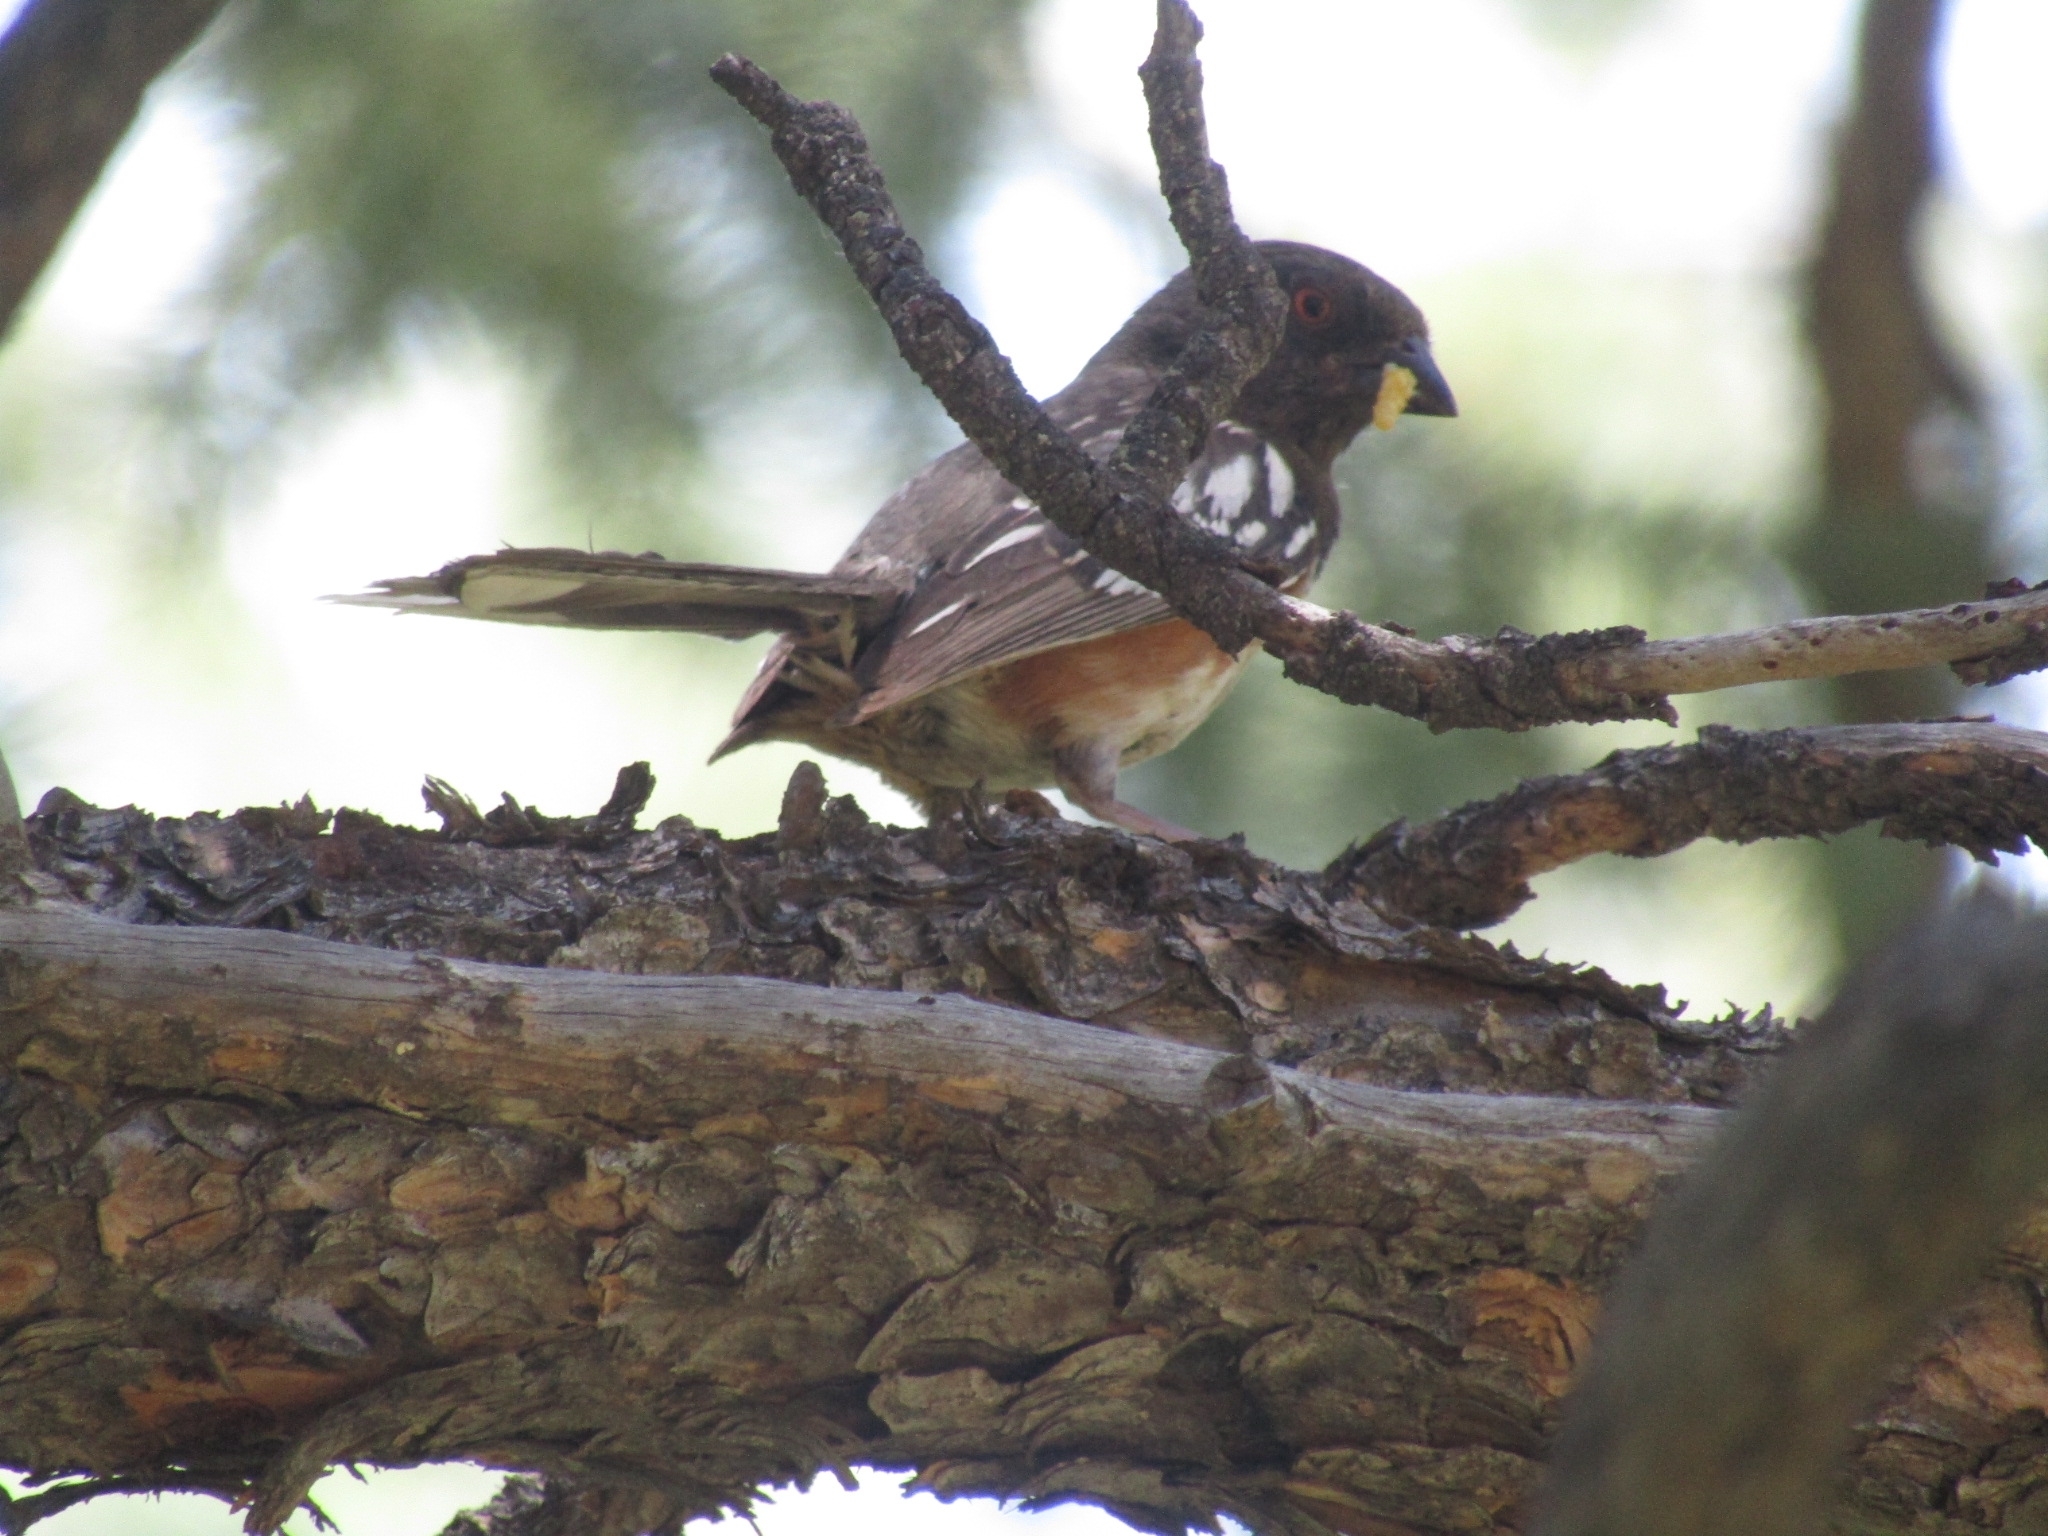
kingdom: Animalia
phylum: Chordata
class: Aves
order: Passeriformes
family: Passerellidae
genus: Pipilo
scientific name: Pipilo maculatus
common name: Spotted towhee
